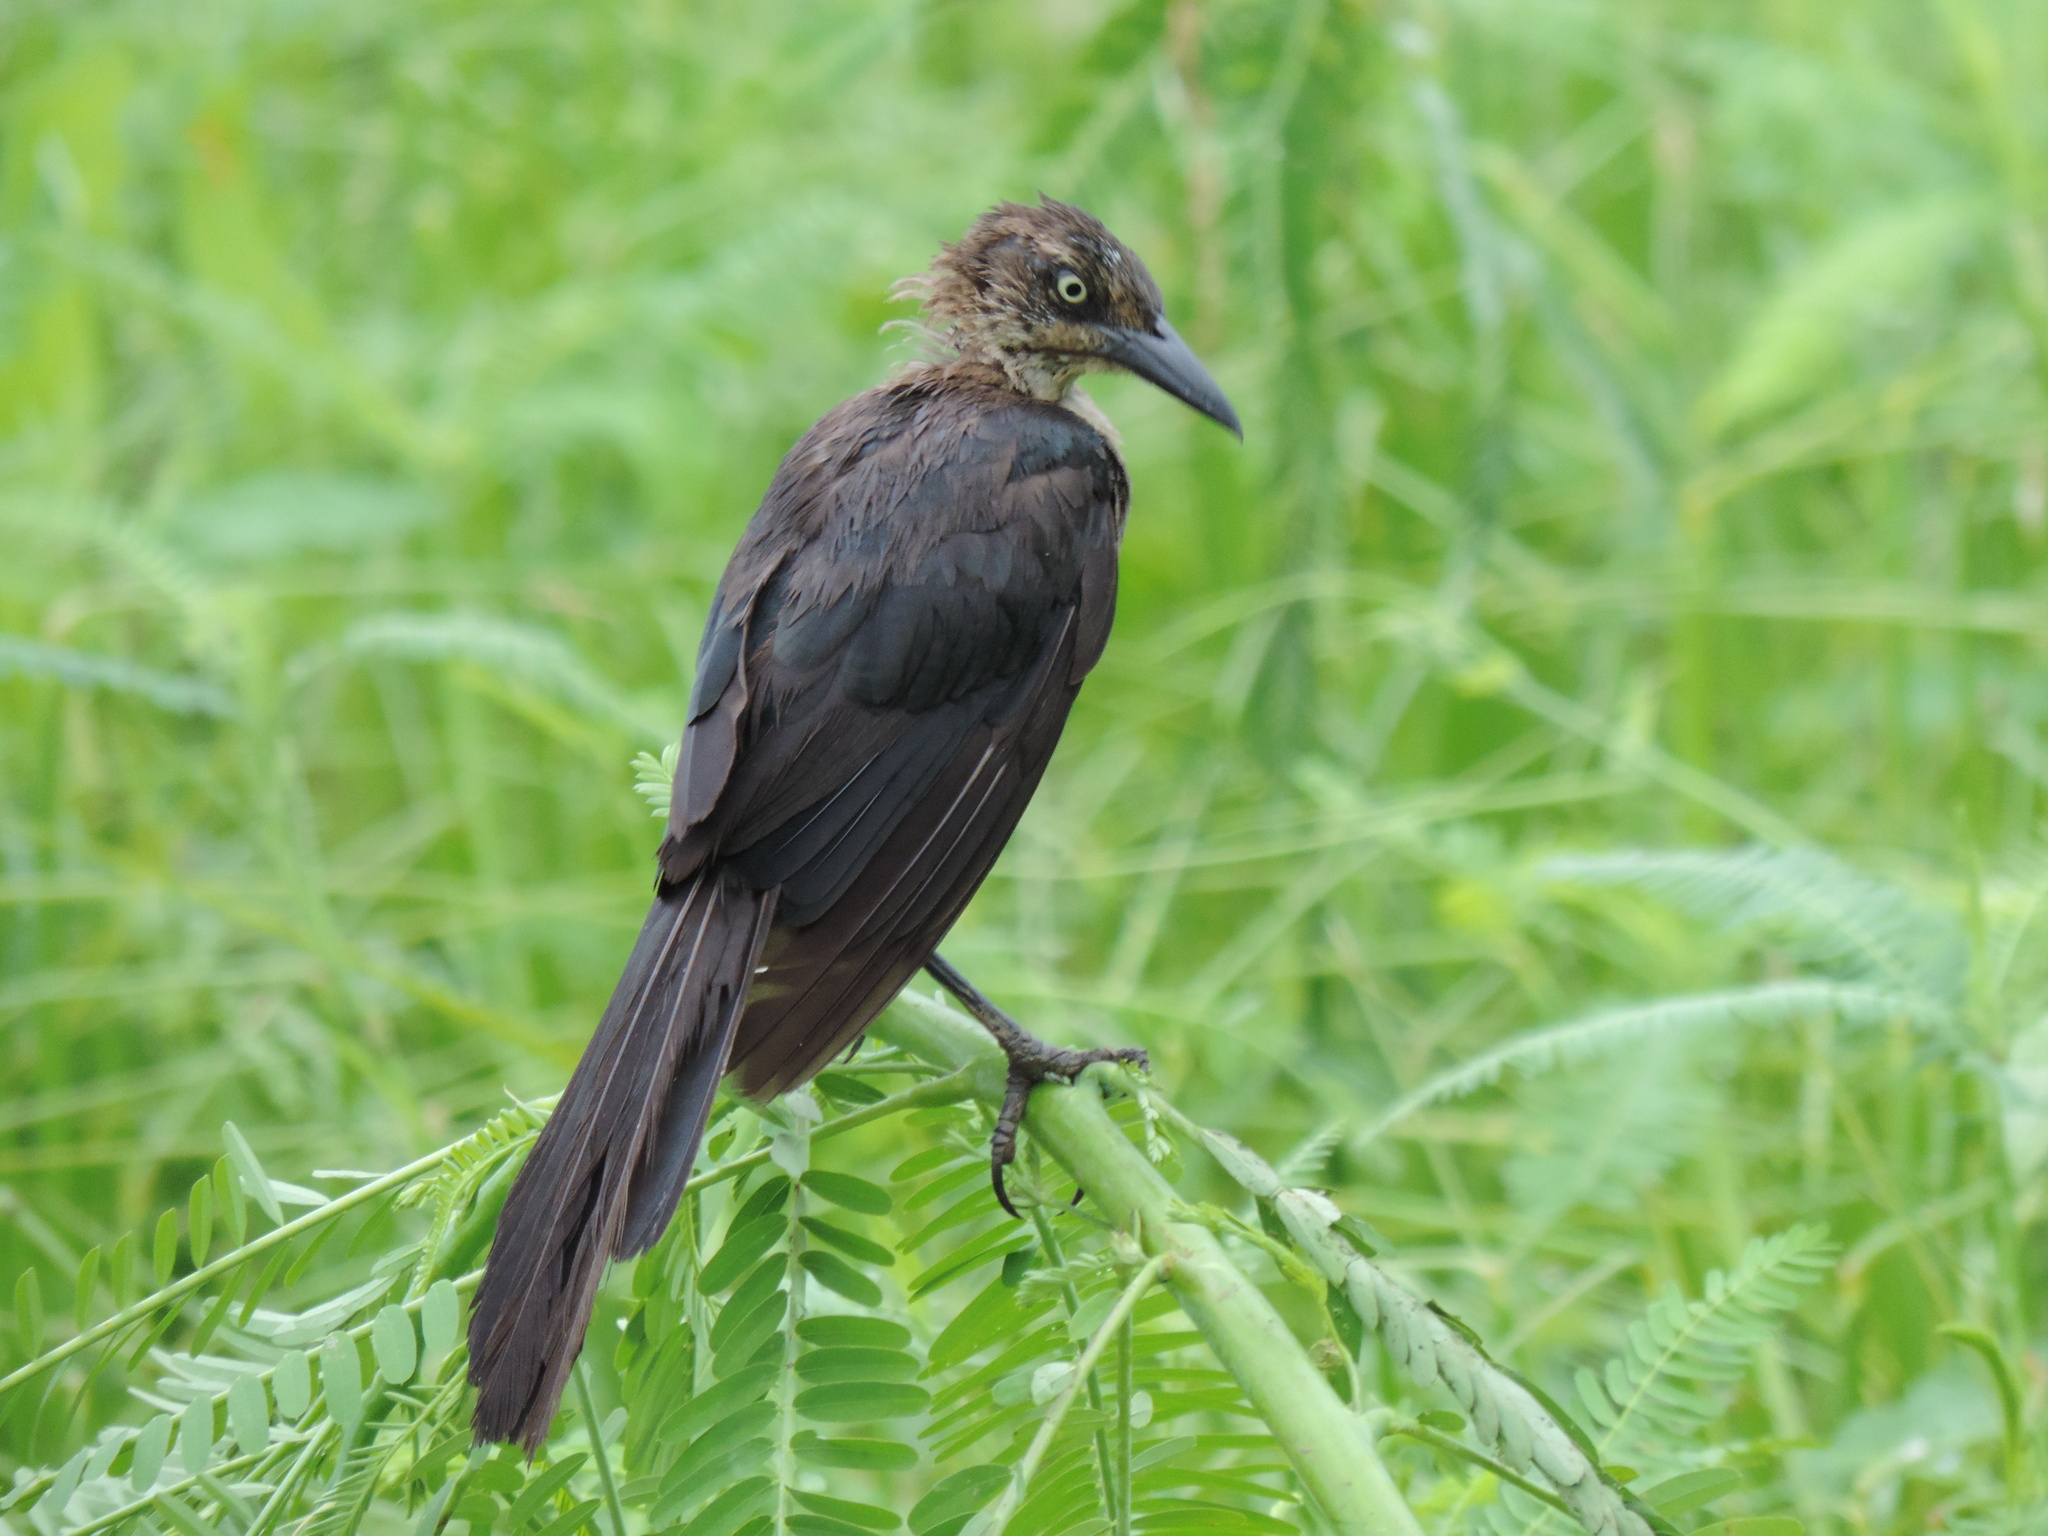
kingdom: Animalia
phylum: Chordata
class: Aves
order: Passeriformes
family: Icteridae
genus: Quiscalus
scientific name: Quiscalus mexicanus
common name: Great-tailed grackle
